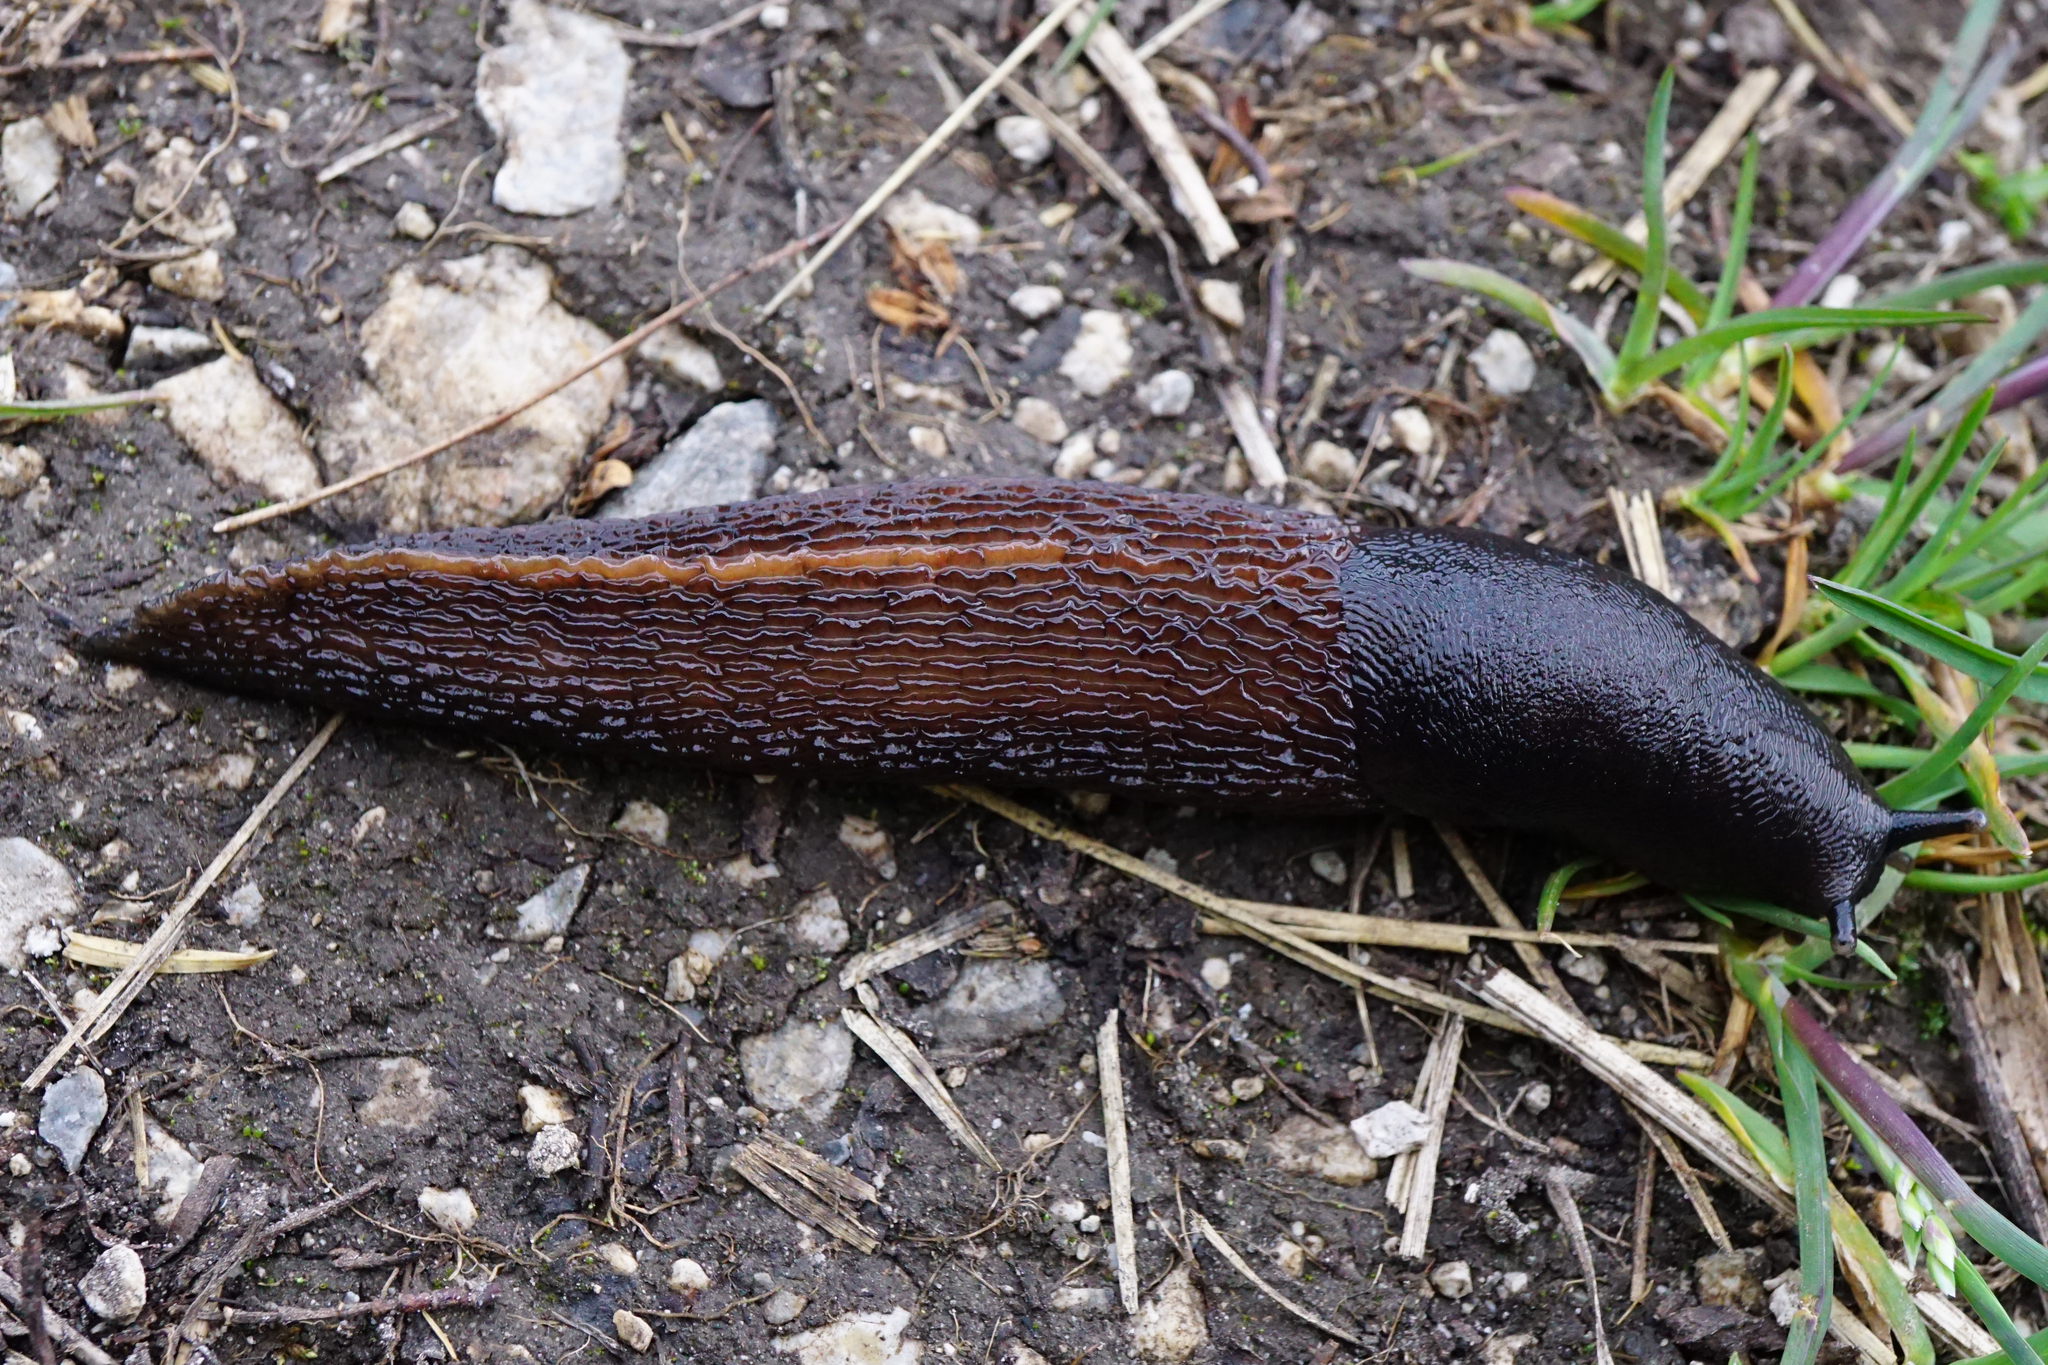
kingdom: Animalia
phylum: Mollusca
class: Gastropoda
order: Stylommatophora
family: Limacidae
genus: Limax
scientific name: Limax cinereoniger
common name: Ash-black slug
